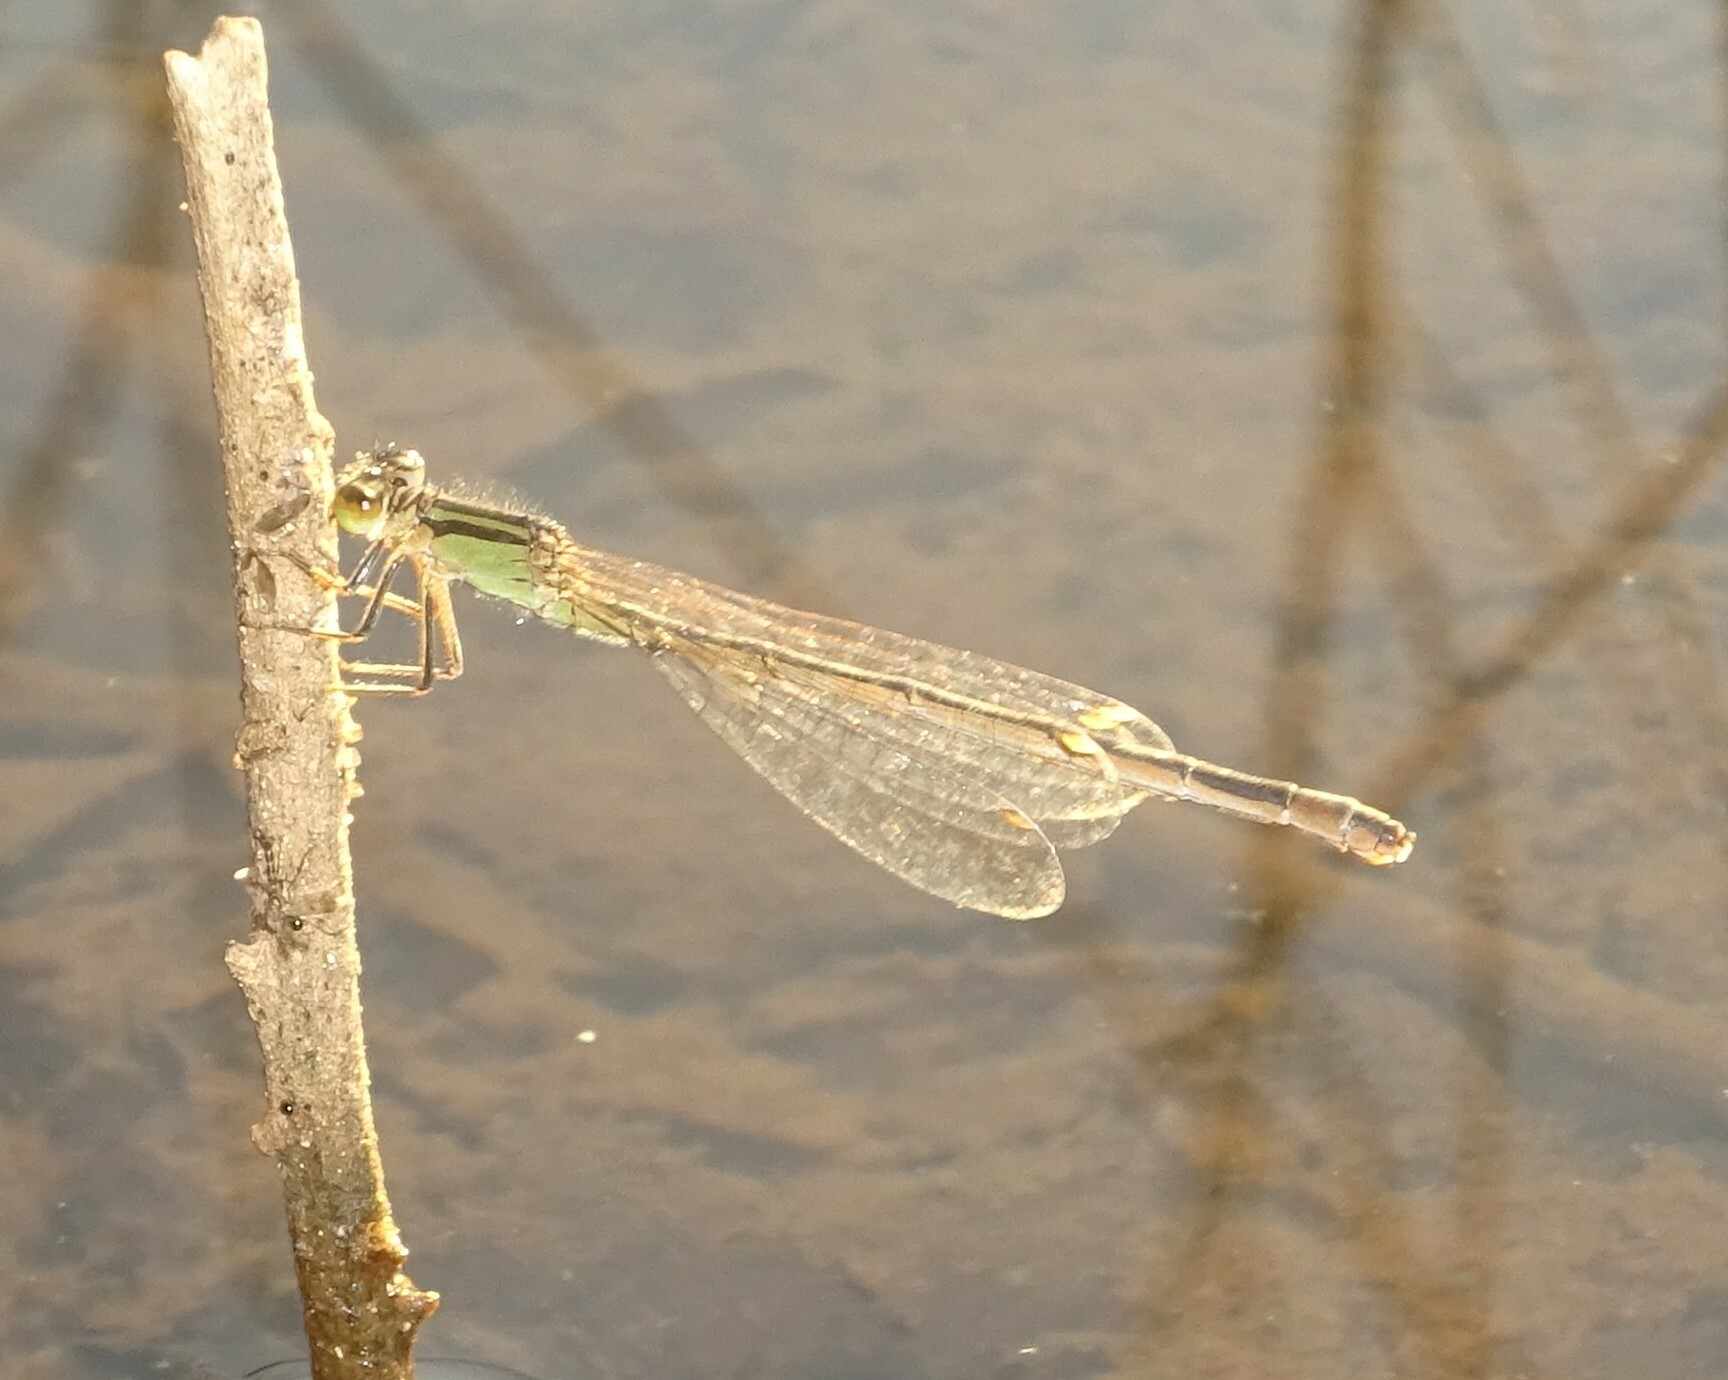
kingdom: Animalia
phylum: Arthropoda
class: Insecta
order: Odonata
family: Coenagrionidae
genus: Ischnura
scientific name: Ischnura elegans
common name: Blue-tailed damselfly
